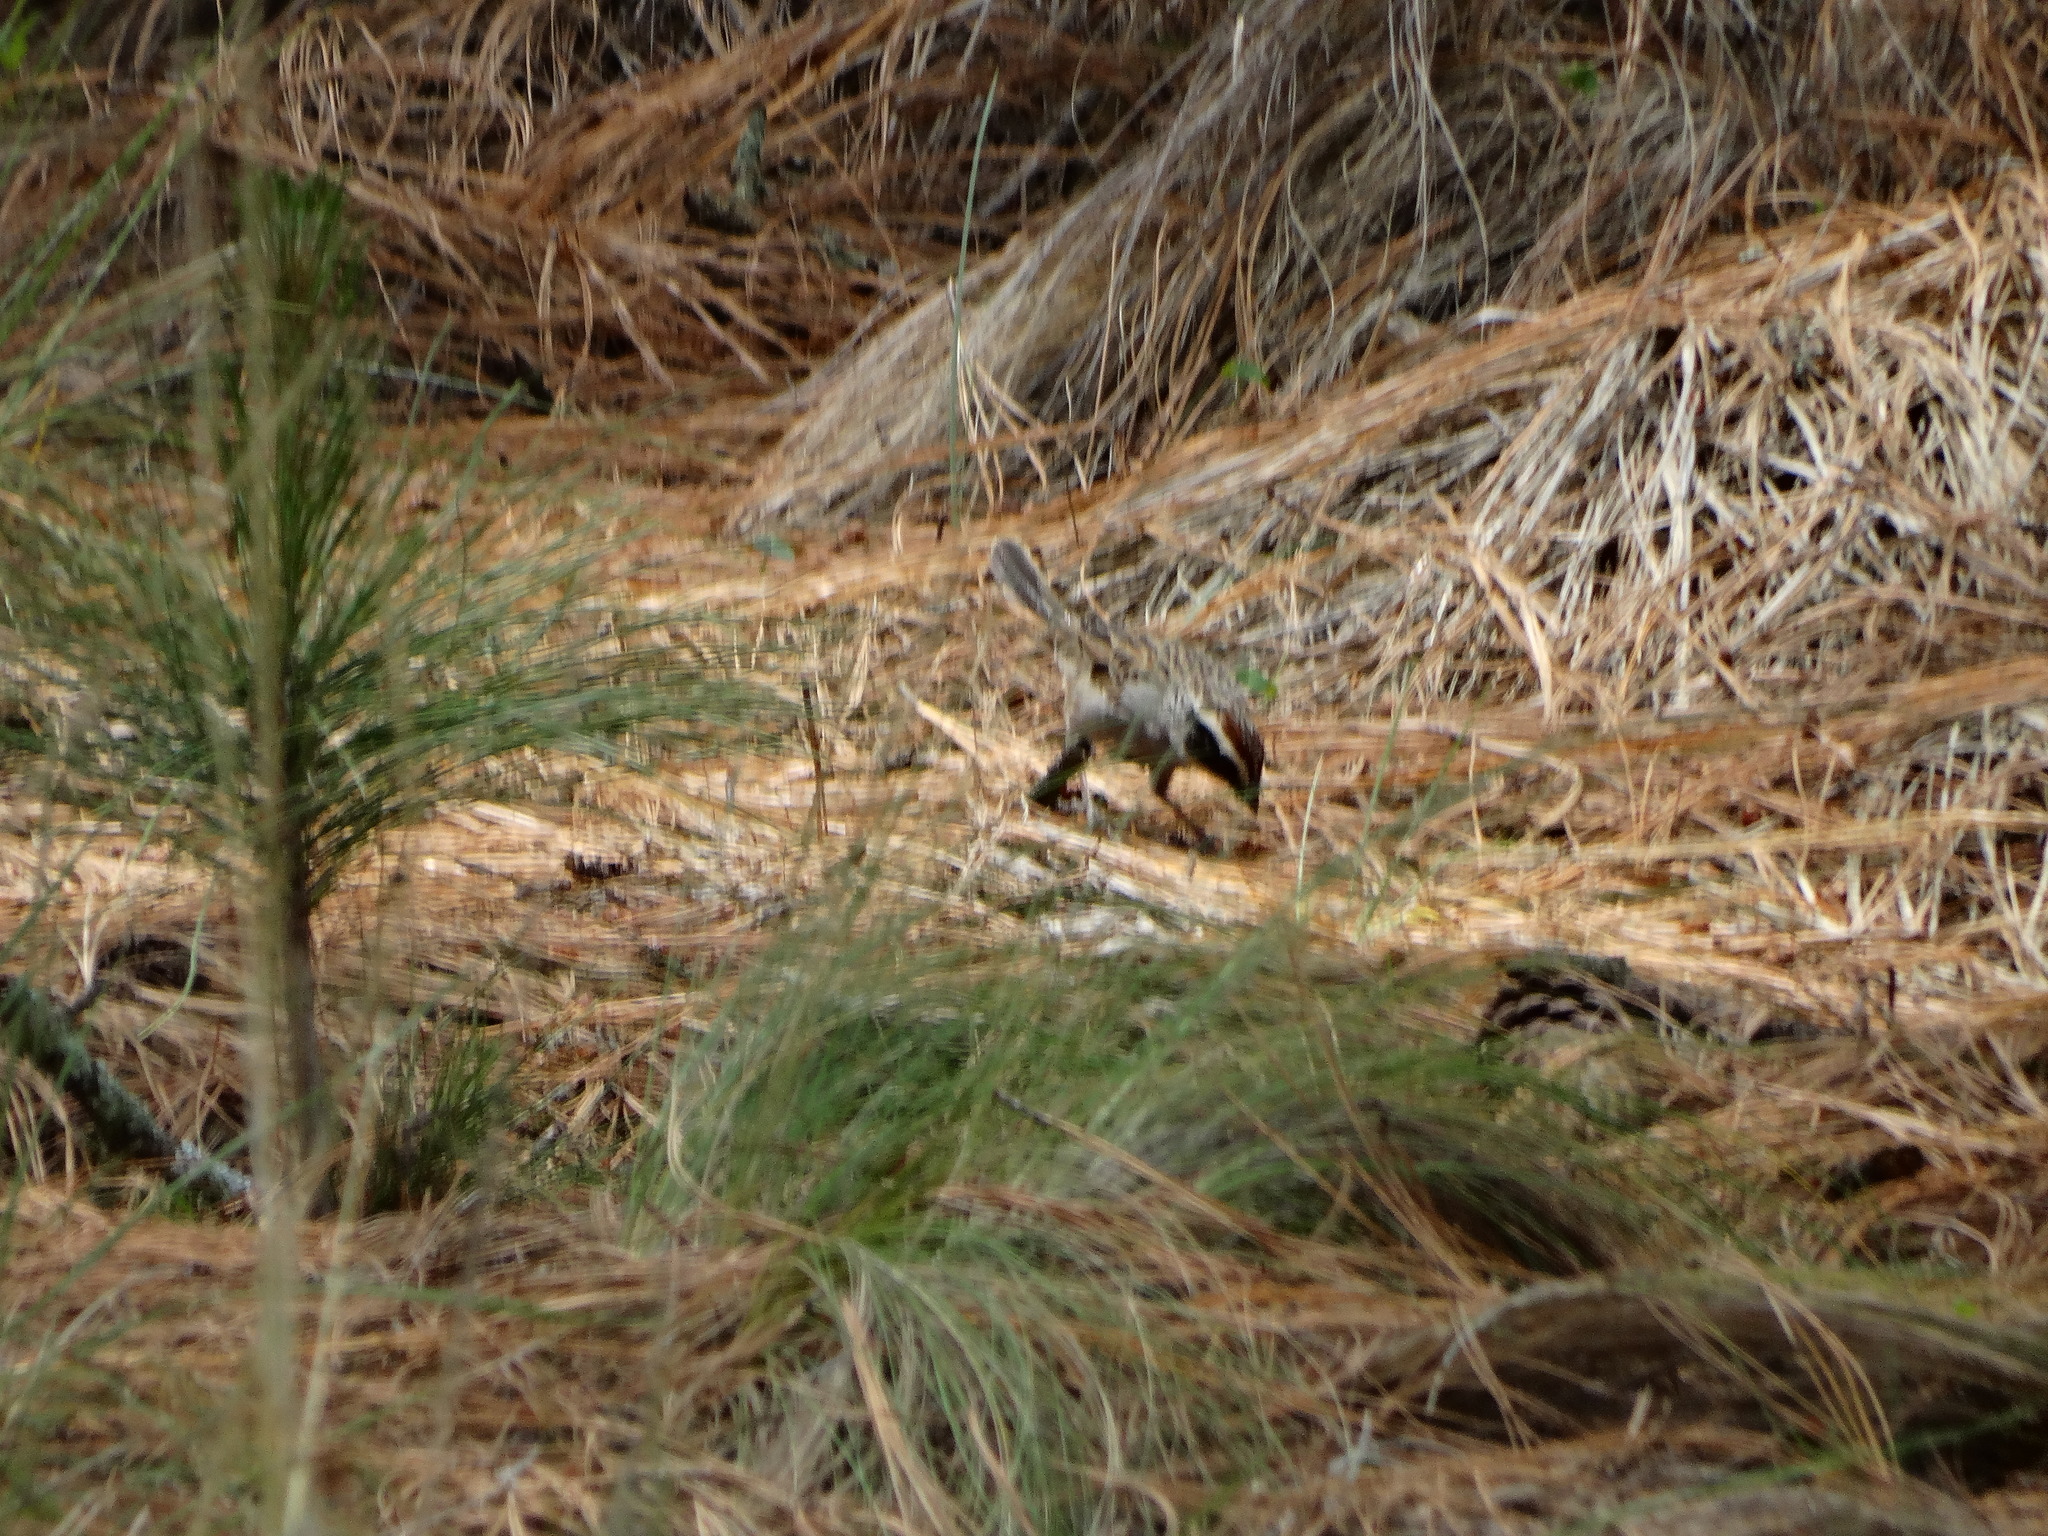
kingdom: Animalia
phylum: Chordata
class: Aves
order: Passeriformes
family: Passerellidae
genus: Oriturus
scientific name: Oriturus superciliosus
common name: Striped sparrow
